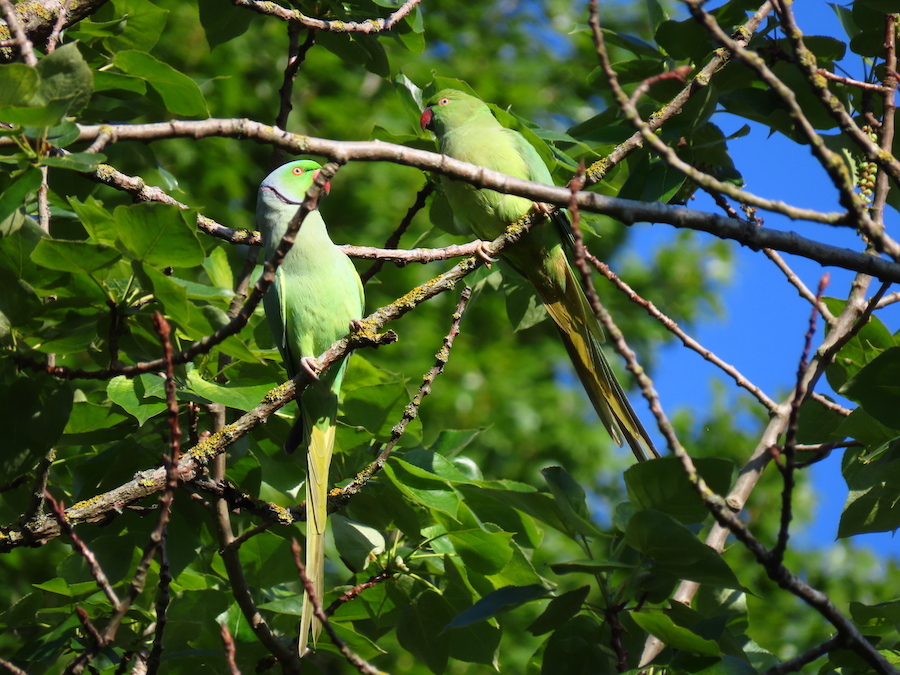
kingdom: Animalia
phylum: Chordata
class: Aves
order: Psittaciformes
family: Psittacidae
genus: Psittacula
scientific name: Psittacula krameri
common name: Rose-ringed parakeet
